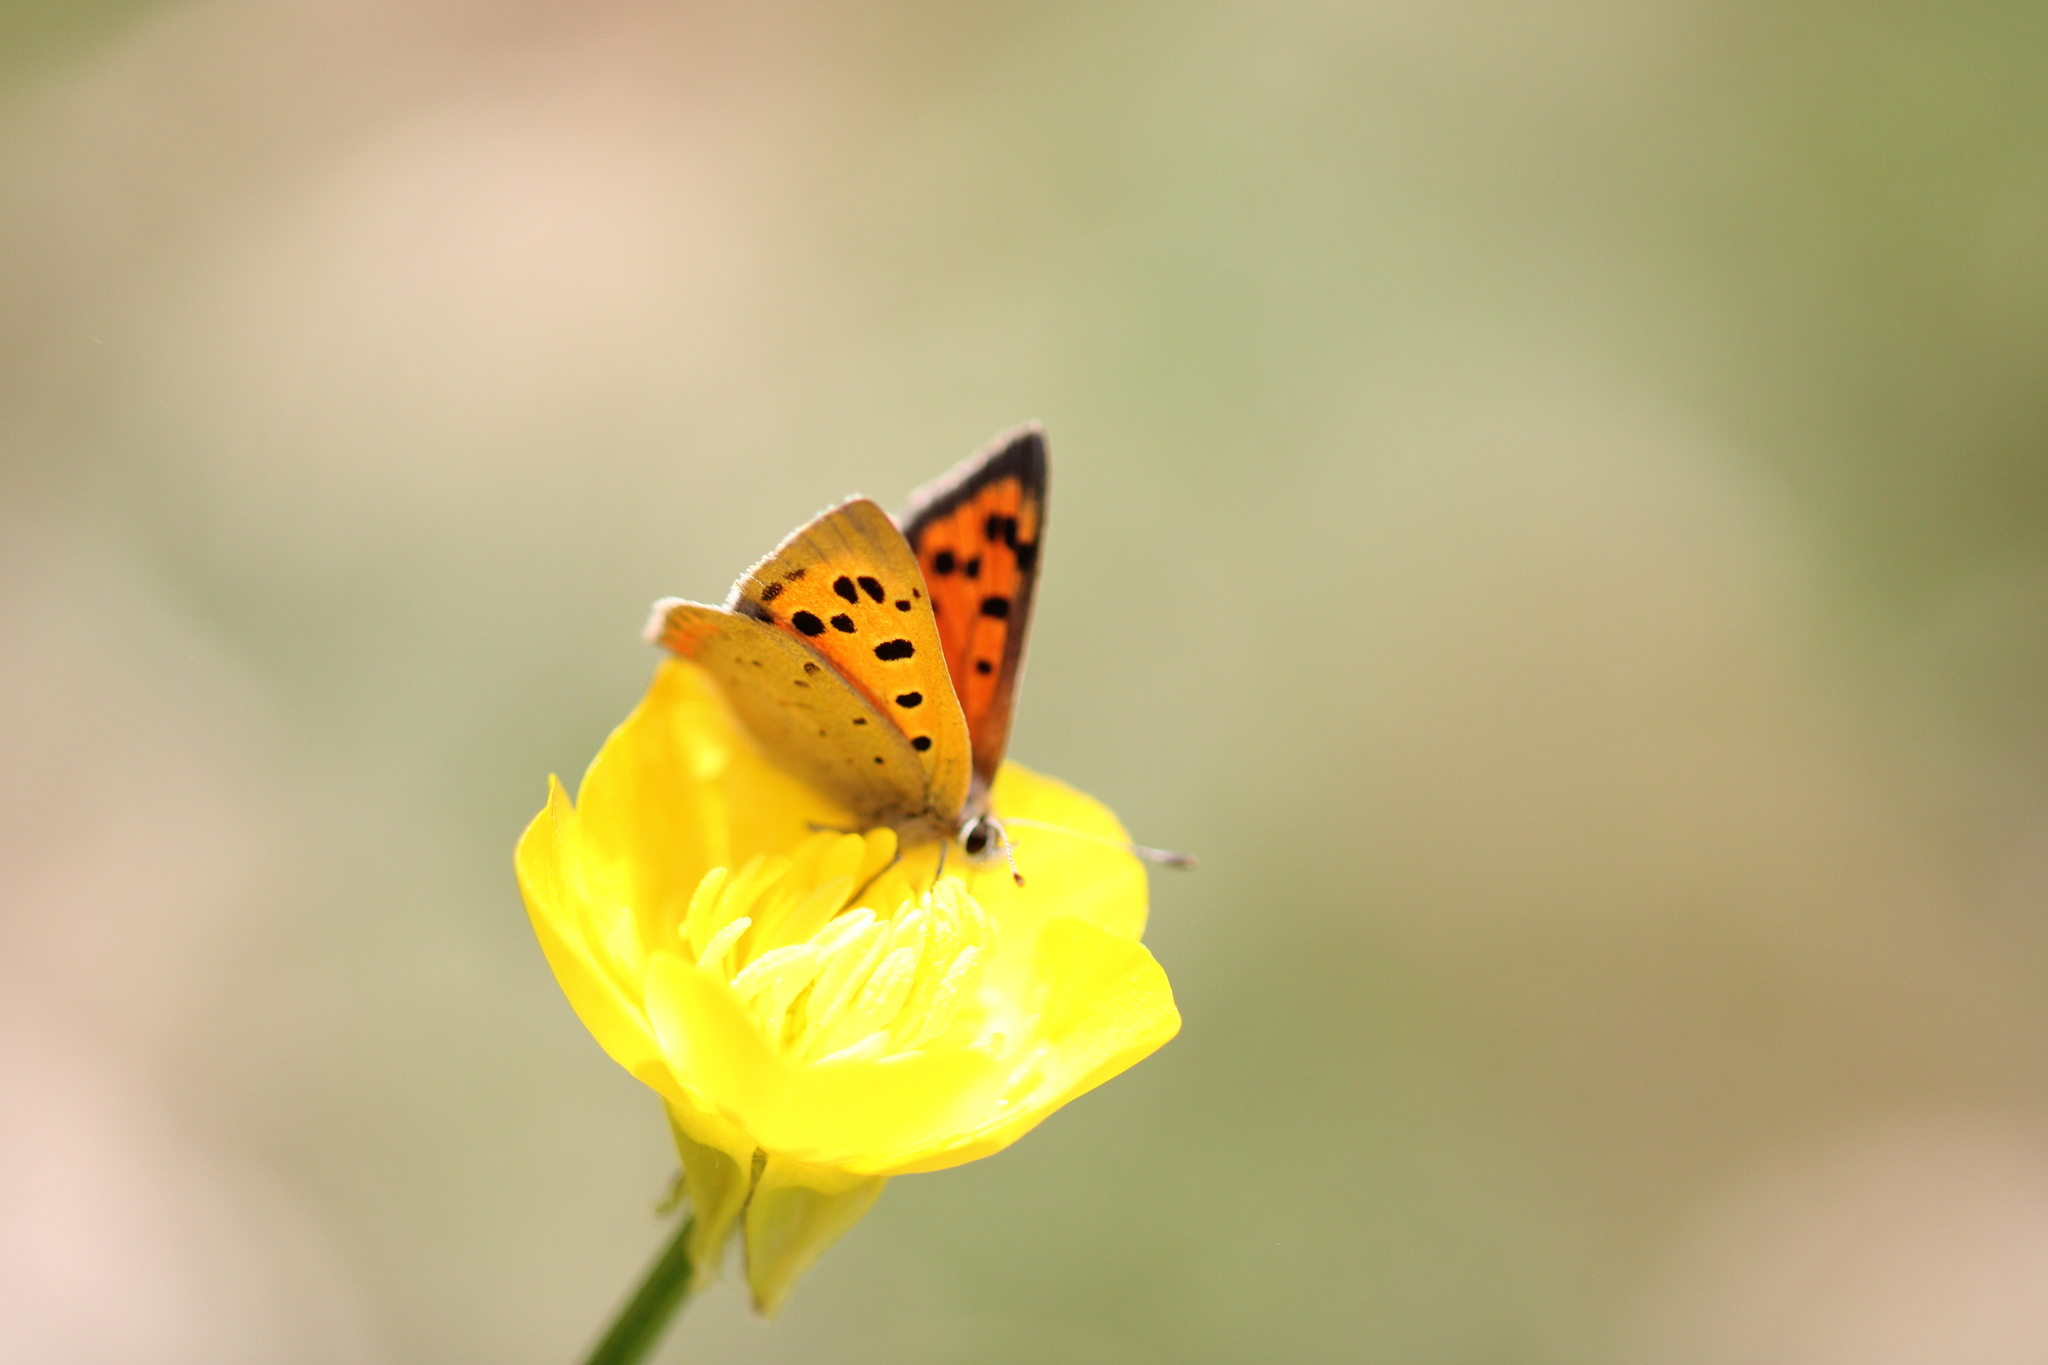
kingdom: Animalia
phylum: Arthropoda
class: Insecta
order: Lepidoptera
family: Lycaenidae
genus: Lycaena
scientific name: Lycaena phlaeas
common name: Small copper
